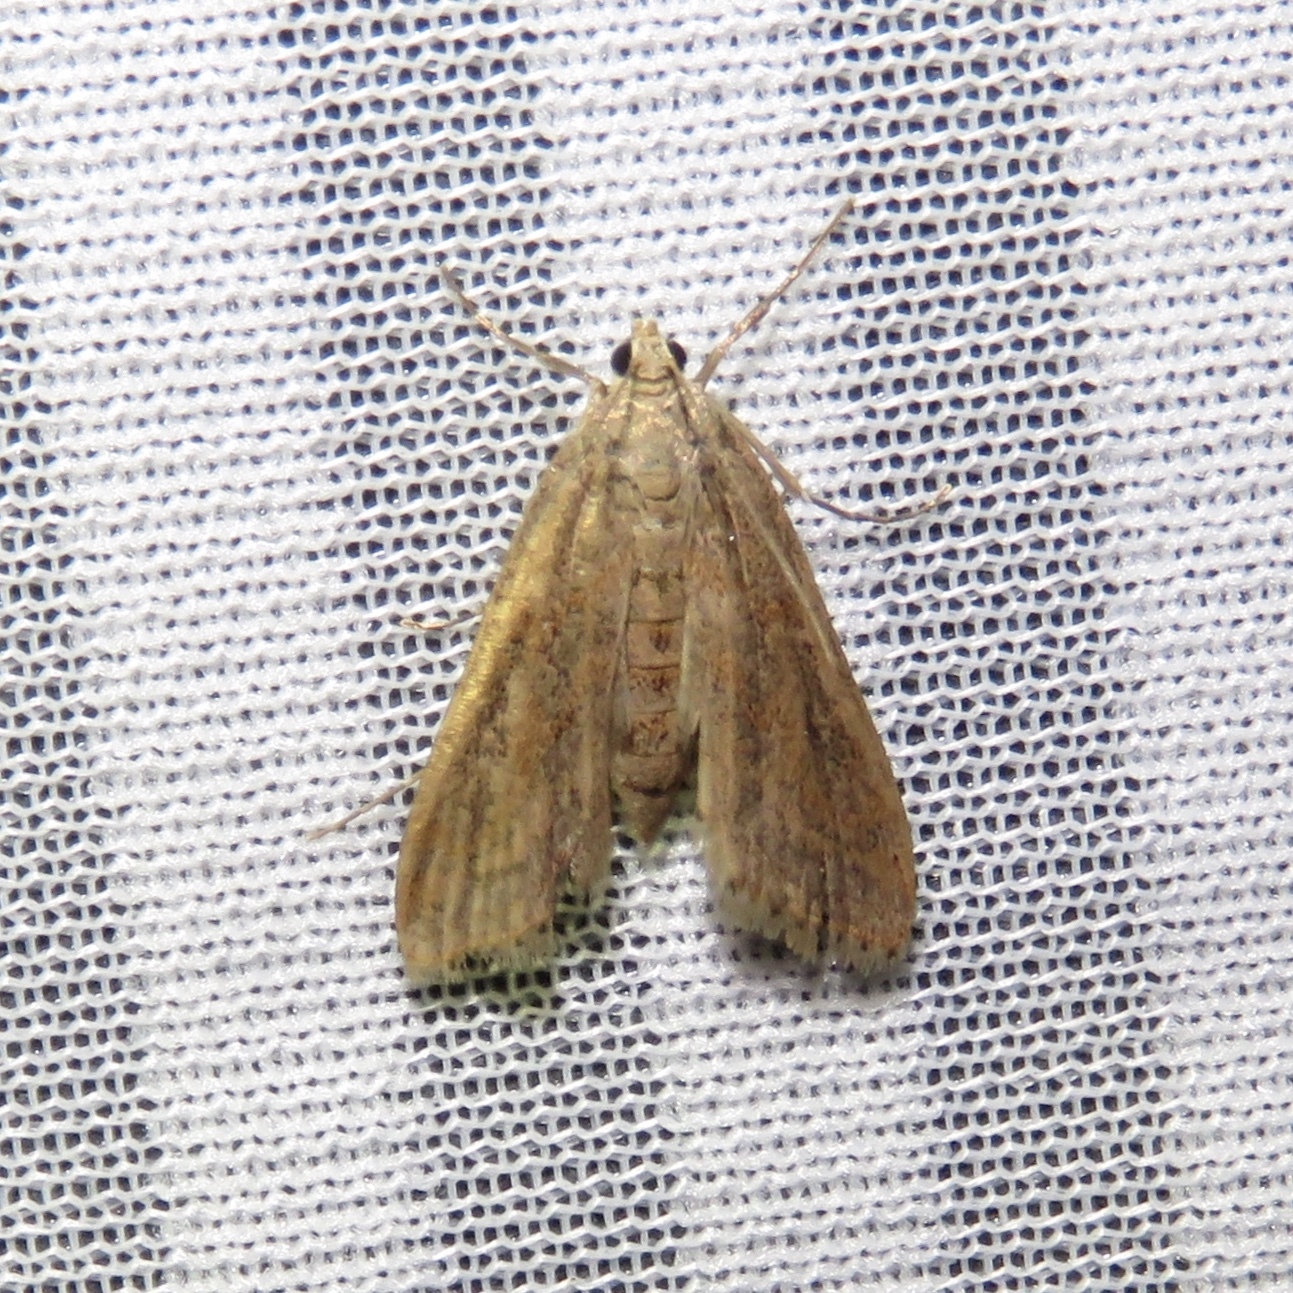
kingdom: Animalia
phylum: Arthropoda
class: Insecta
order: Lepidoptera
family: Crambidae
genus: Parapoynx
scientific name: Parapoynx seminealis
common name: Floating-heart waterlily leafcutter
